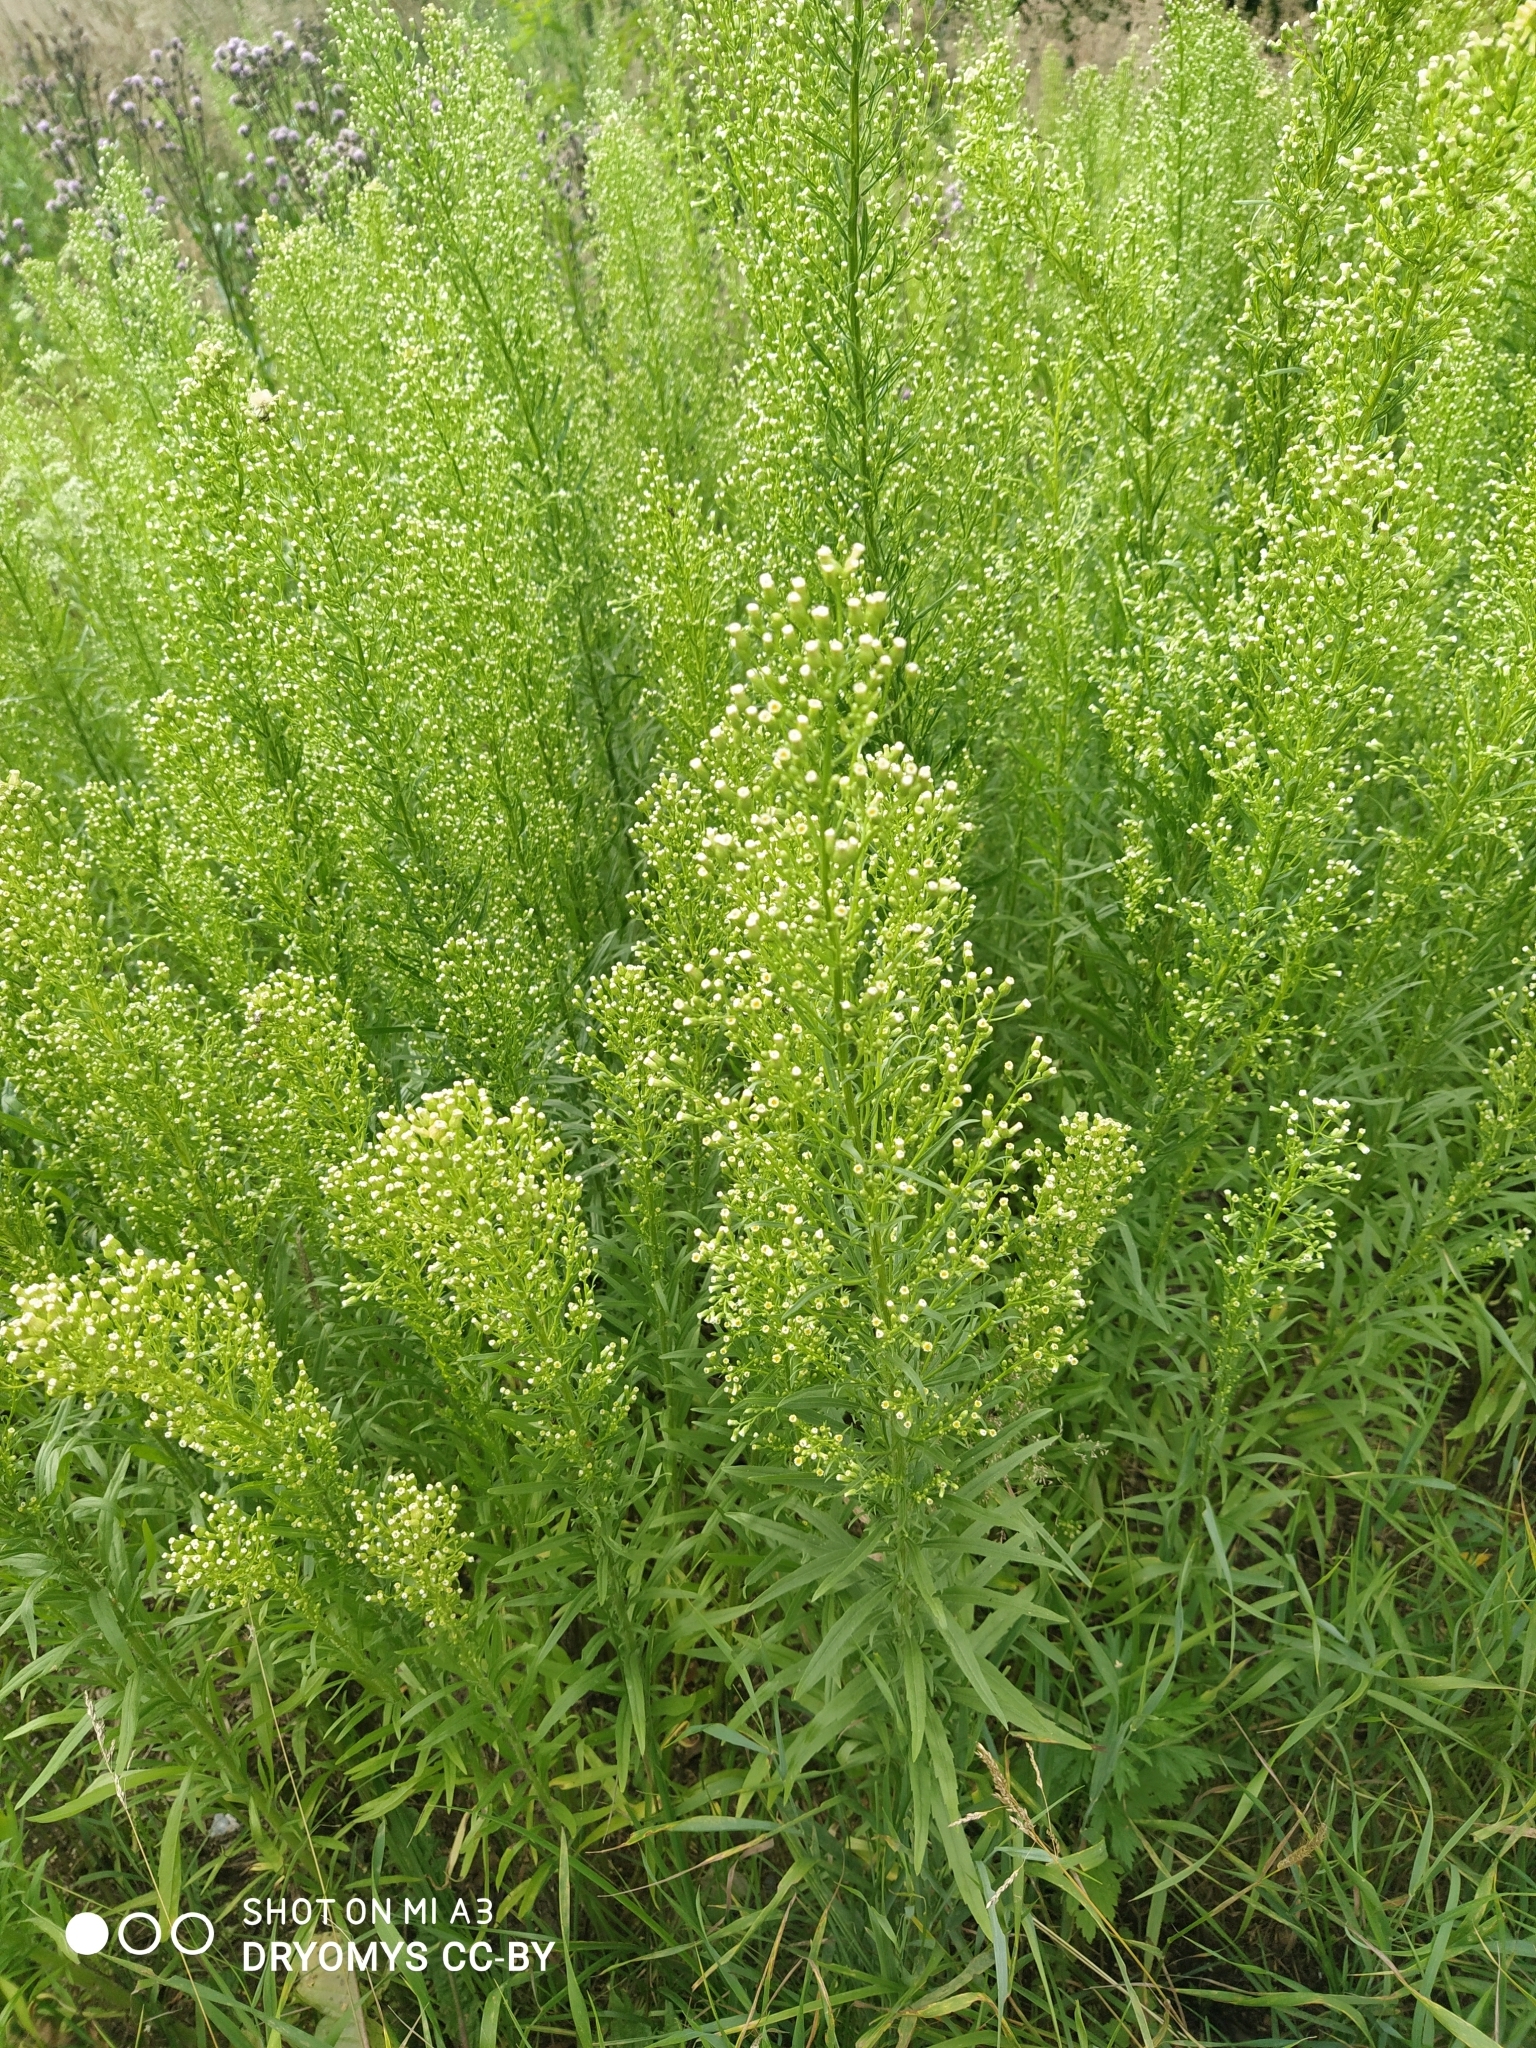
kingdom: Plantae
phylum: Tracheophyta
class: Magnoliopsida
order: Asterales
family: Asteraceae
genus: Erigeron
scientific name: Erigeron canadensis
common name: Canadian fleabane
